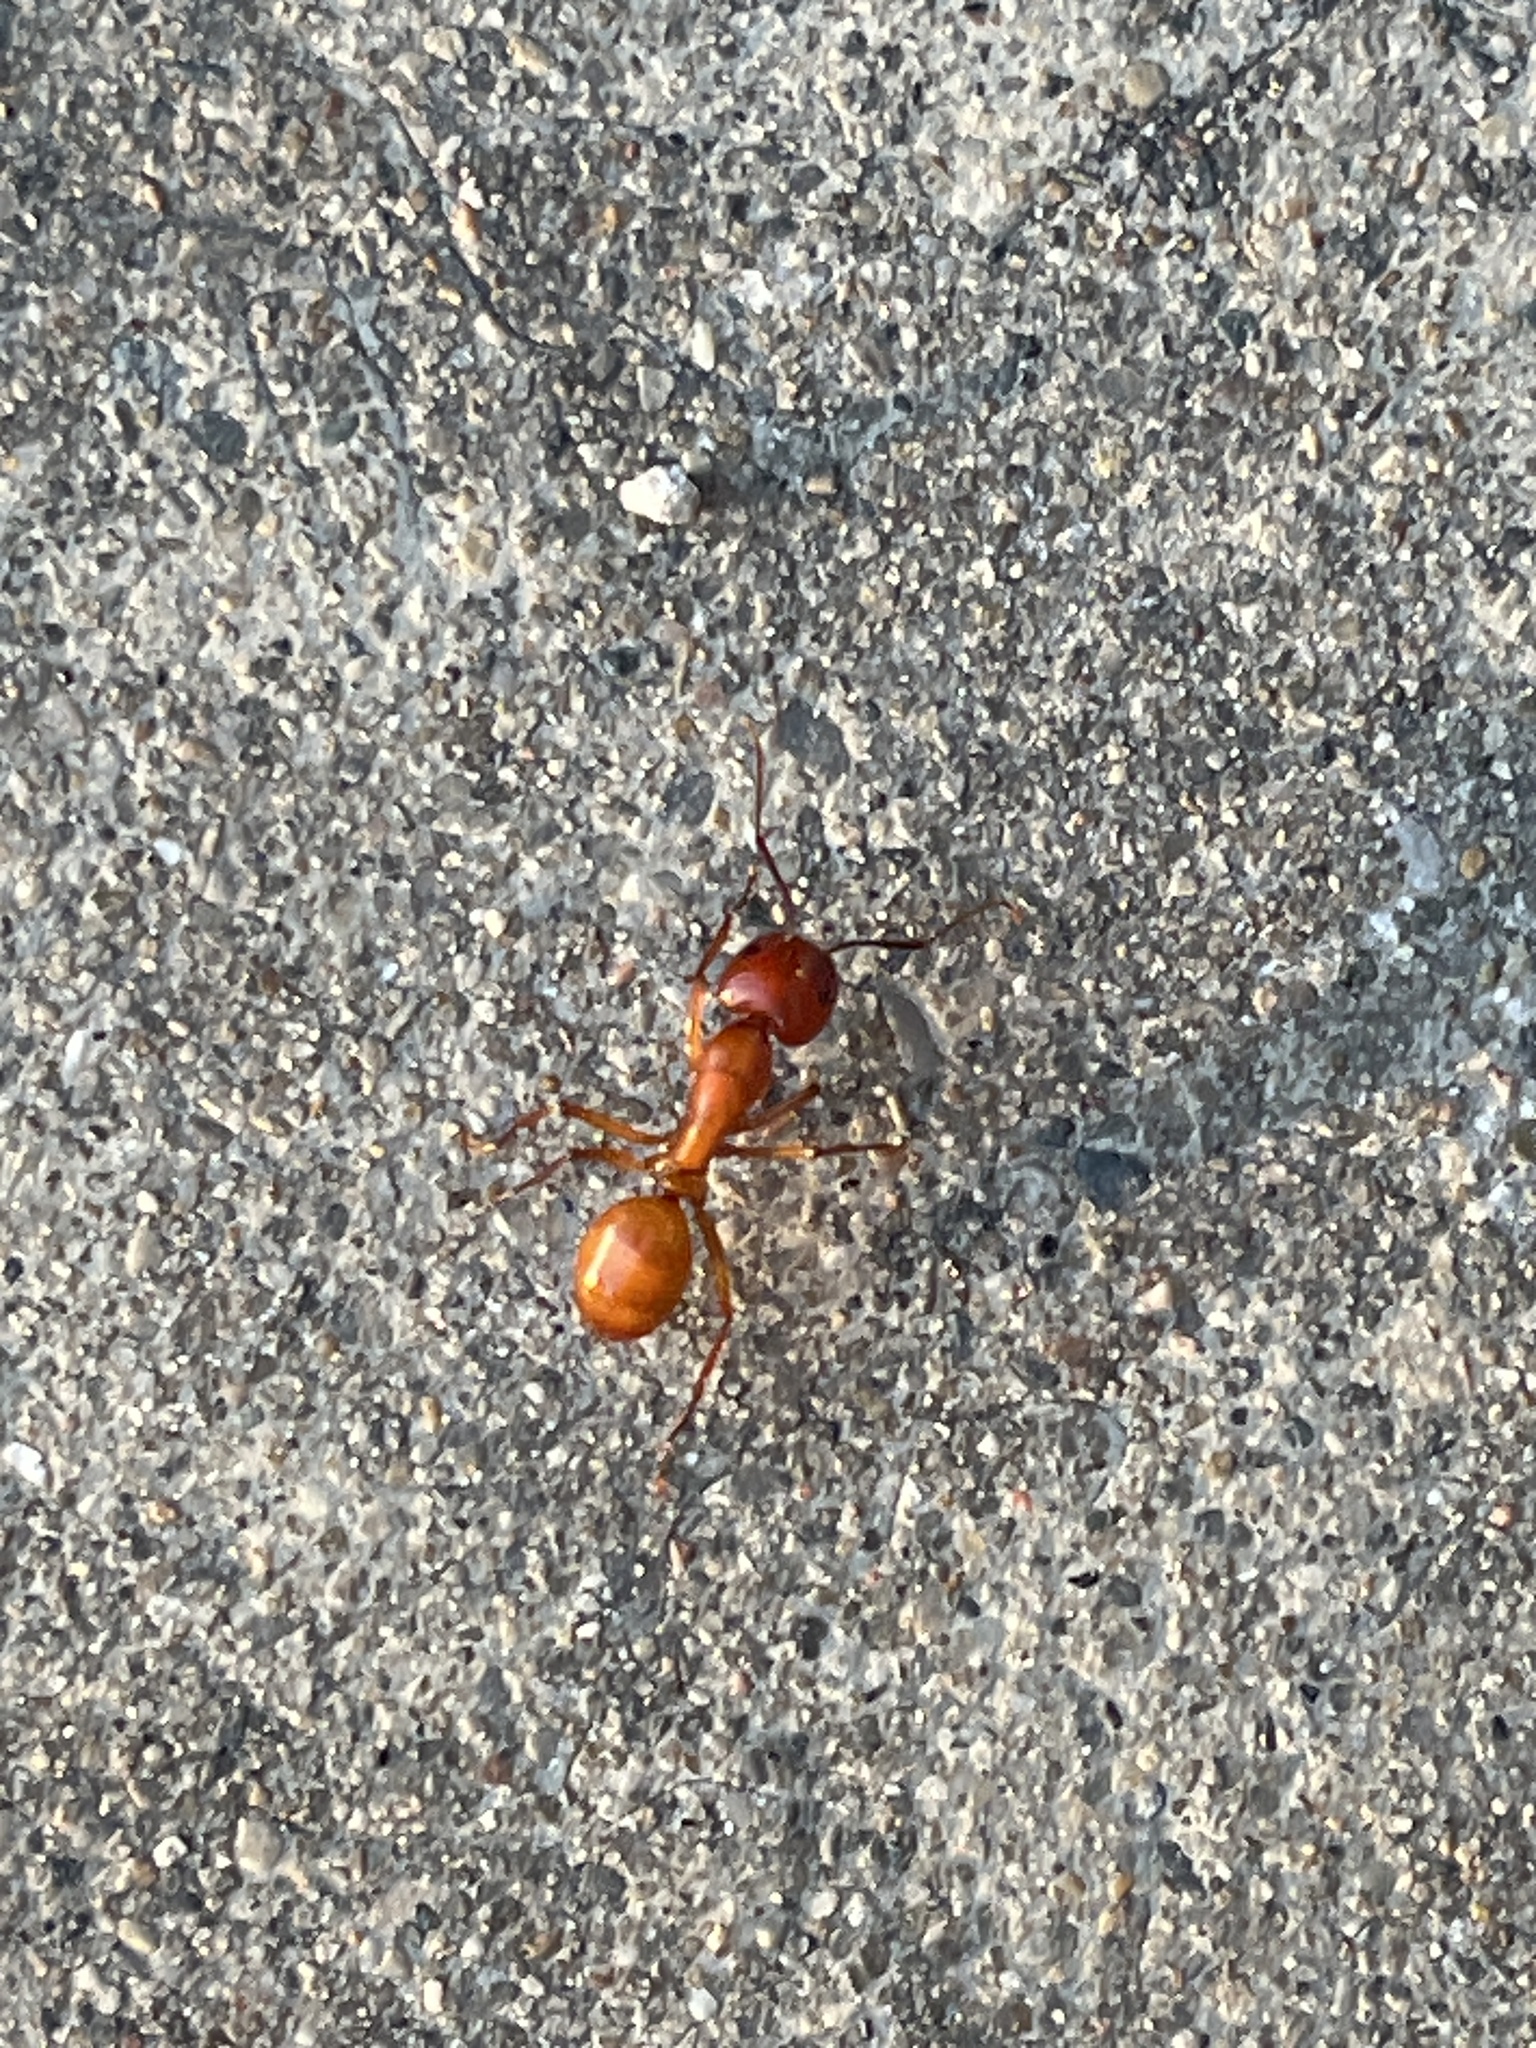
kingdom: Animalia
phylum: Arthropoda
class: Insecta
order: Hymenoptera
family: Formicidae
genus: Camponotus
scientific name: Camponotus castaneus
